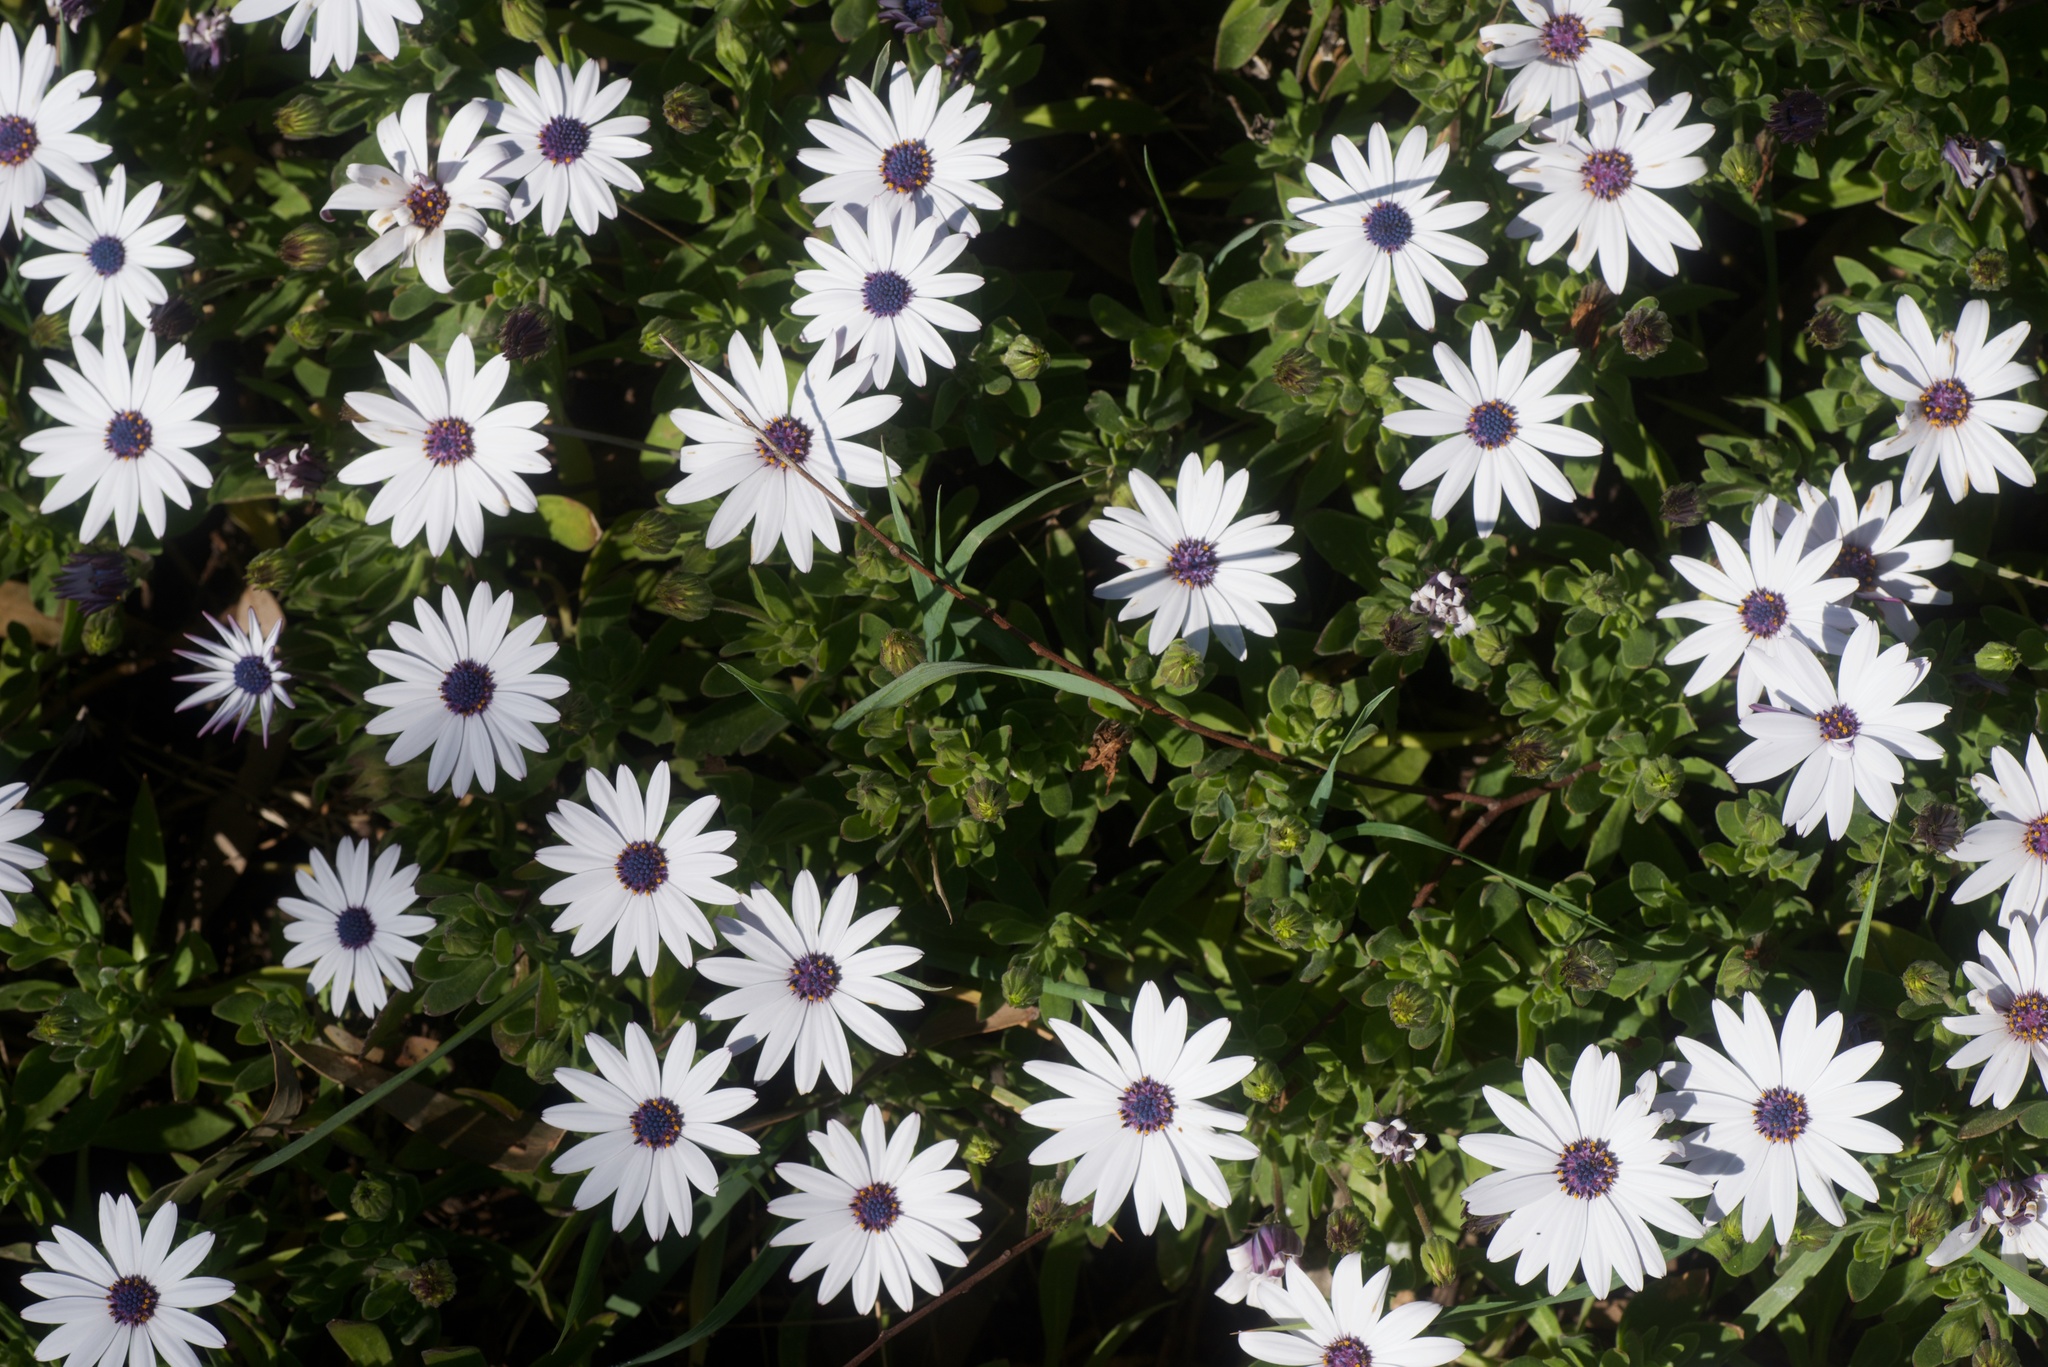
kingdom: Plantae
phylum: Tracheophyta
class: Magnoliopsida
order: Asterales
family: Asteraceae
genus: Dimorphotheca
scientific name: Dimorphotheca fruticosa
